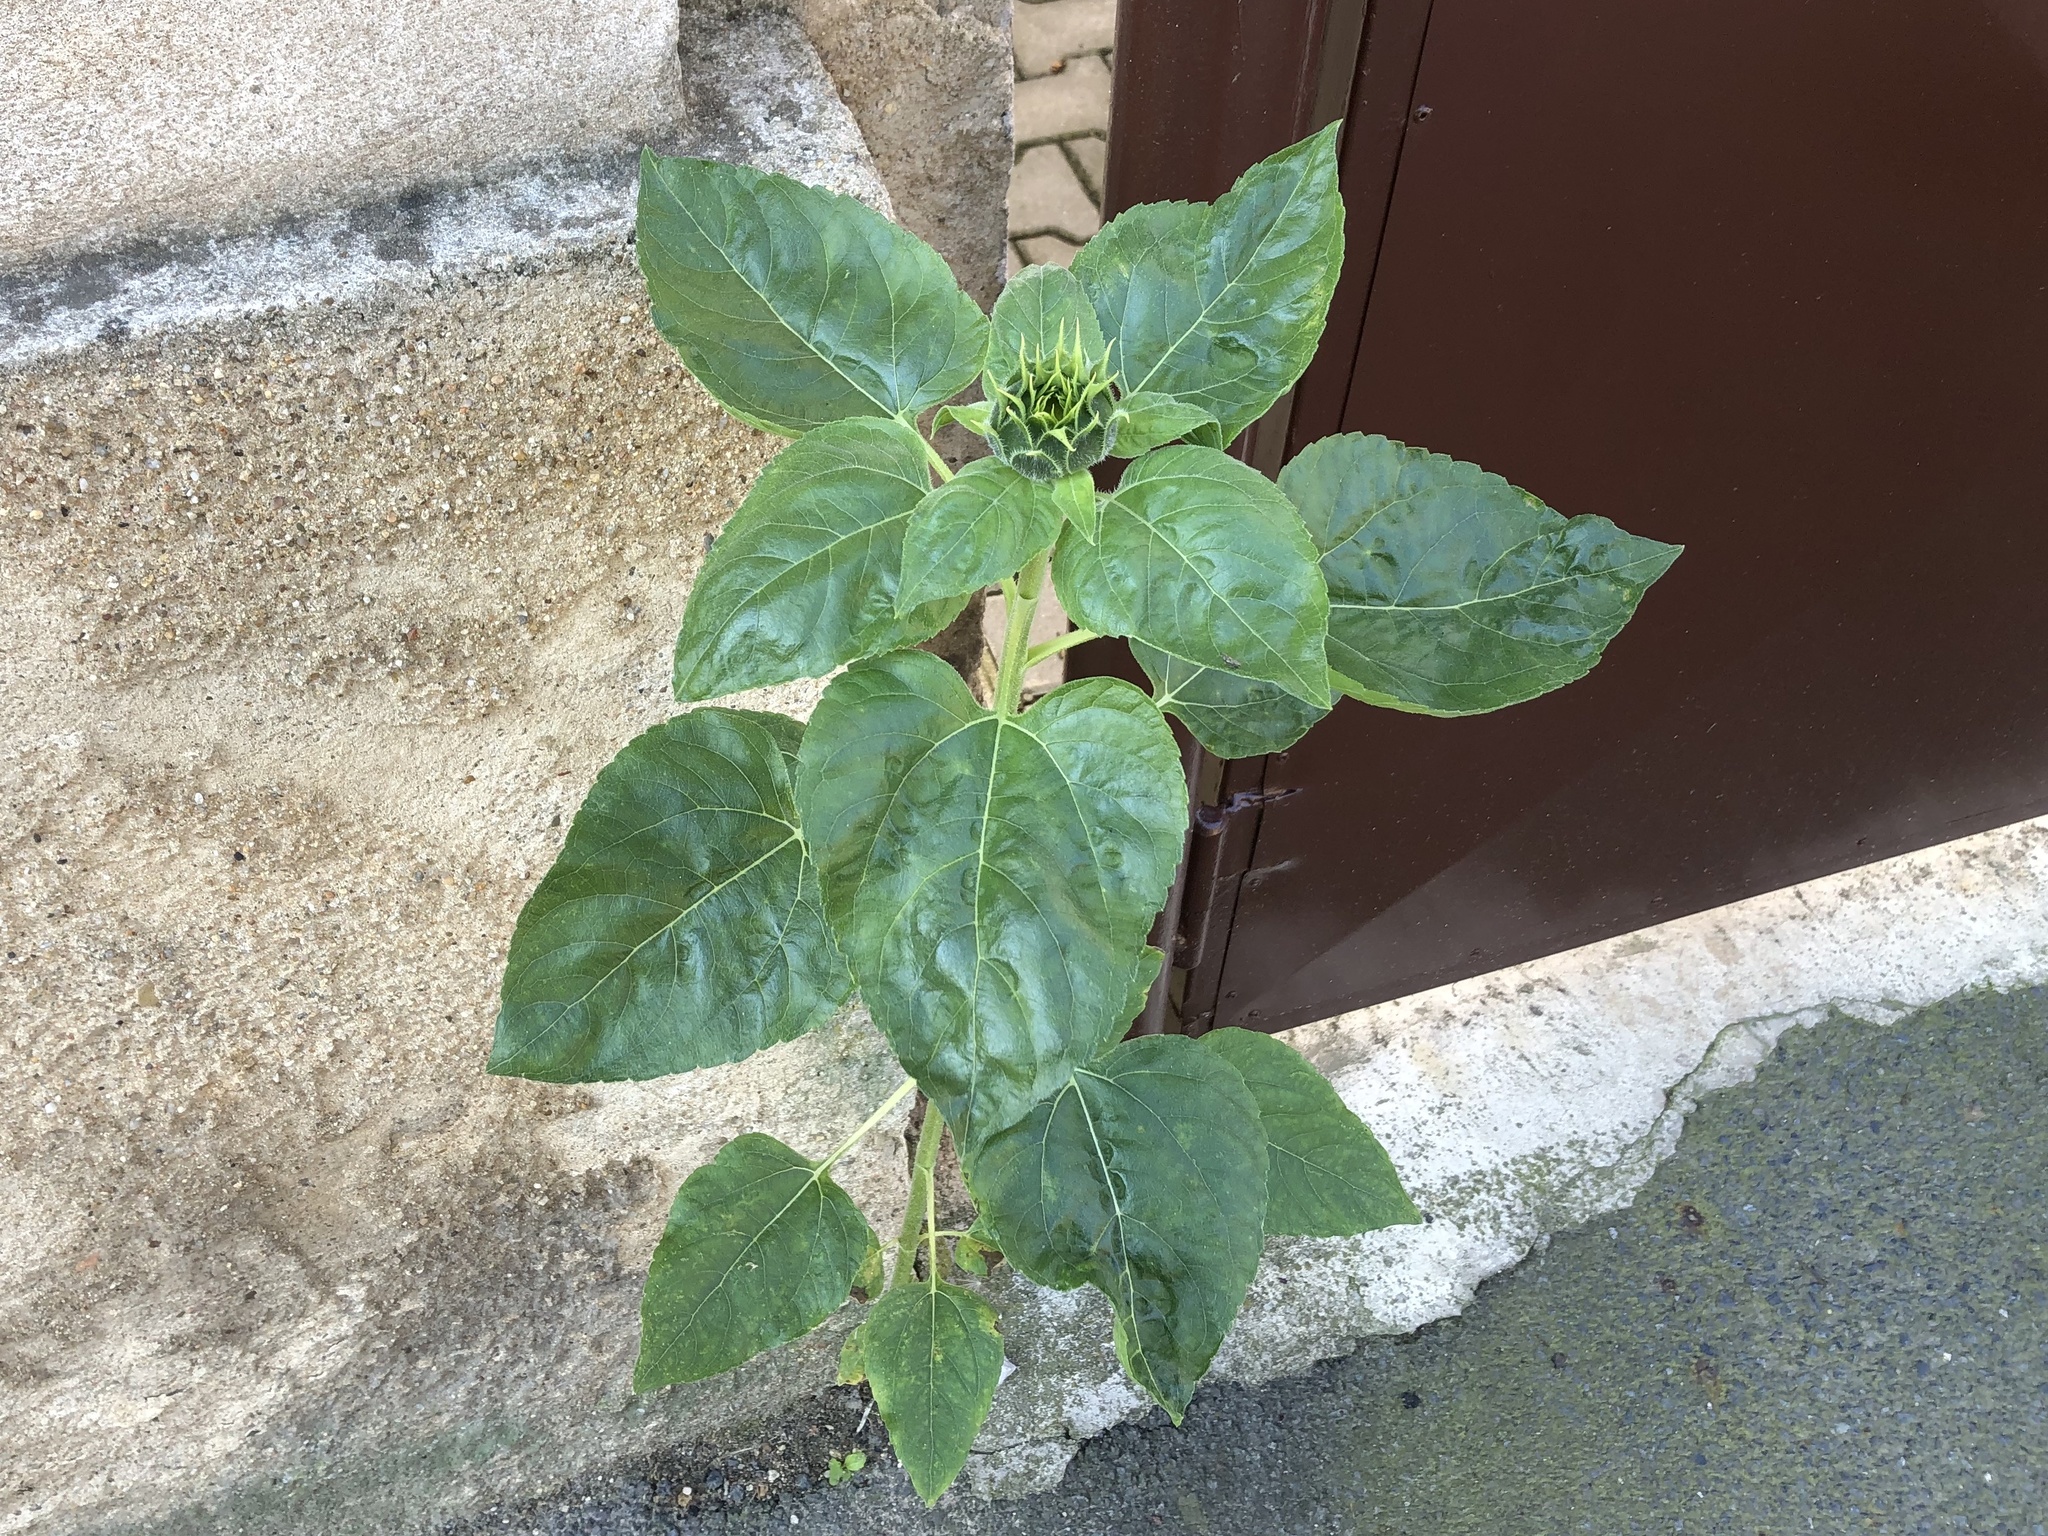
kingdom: Plantae
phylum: Tracheophyta
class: Magnoliopsida
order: Asterales
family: Asteraceae
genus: Helianthus
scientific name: Helianthus annuus
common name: Sunflower
